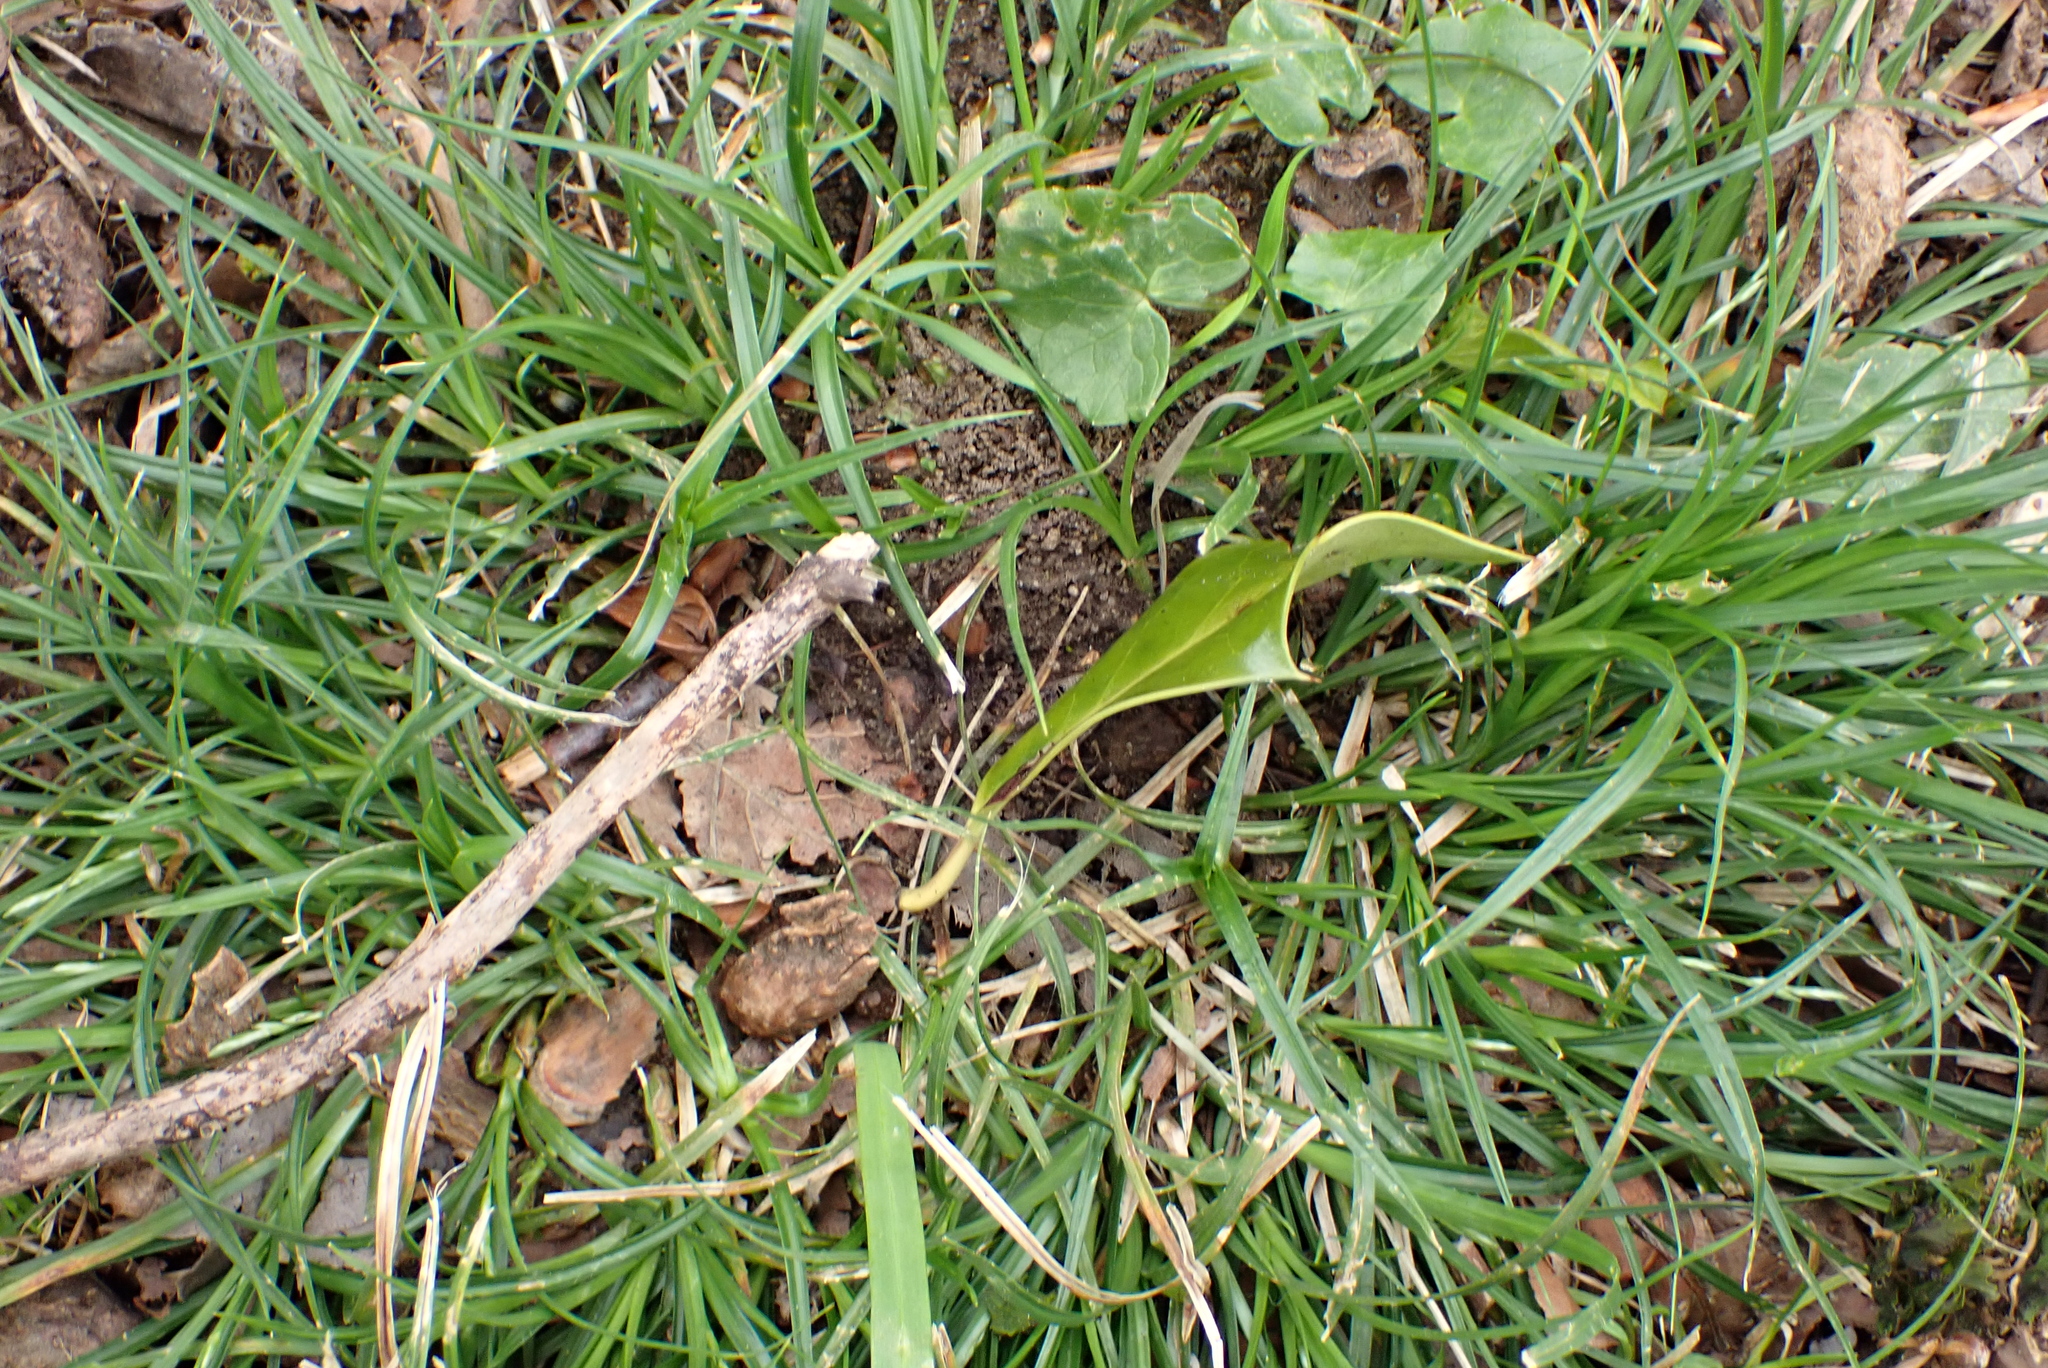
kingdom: Plantae
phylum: Tracheophyta
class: Liliopsida
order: Poales
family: Cyperaceae
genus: Carex
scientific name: Carex sylvatica
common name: Wood-sedge
